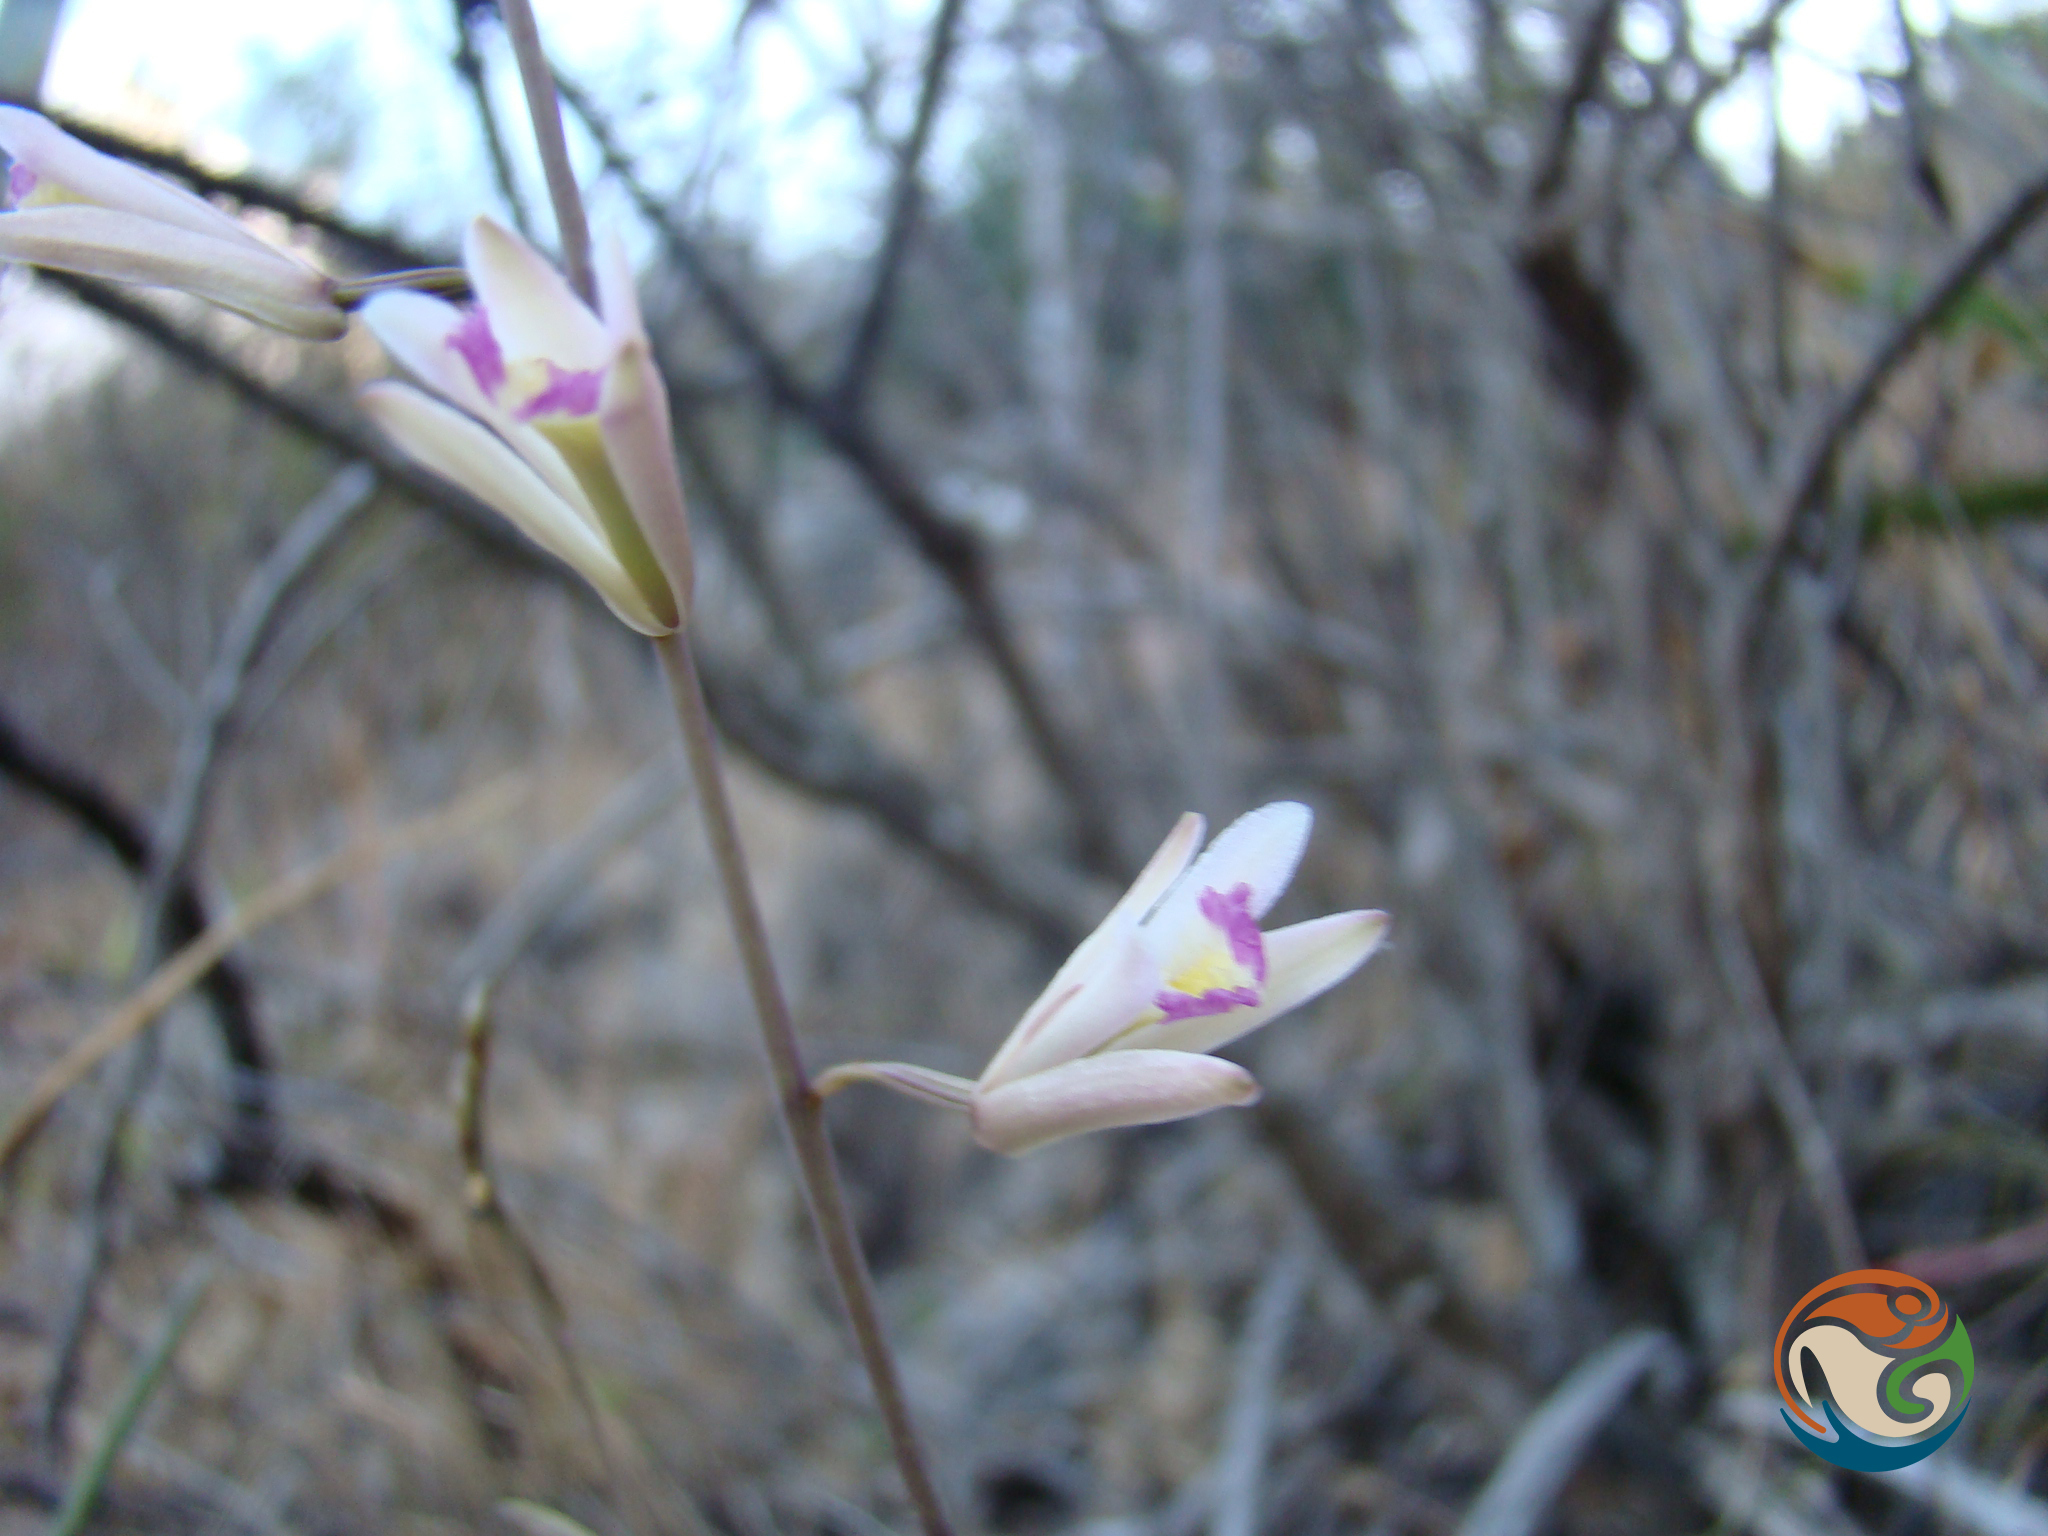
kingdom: Plantae
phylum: Tracheophyta
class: Liliopsida
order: Asparagales
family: Orchidaceae
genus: Bletia
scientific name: Bletia parkinsonii
